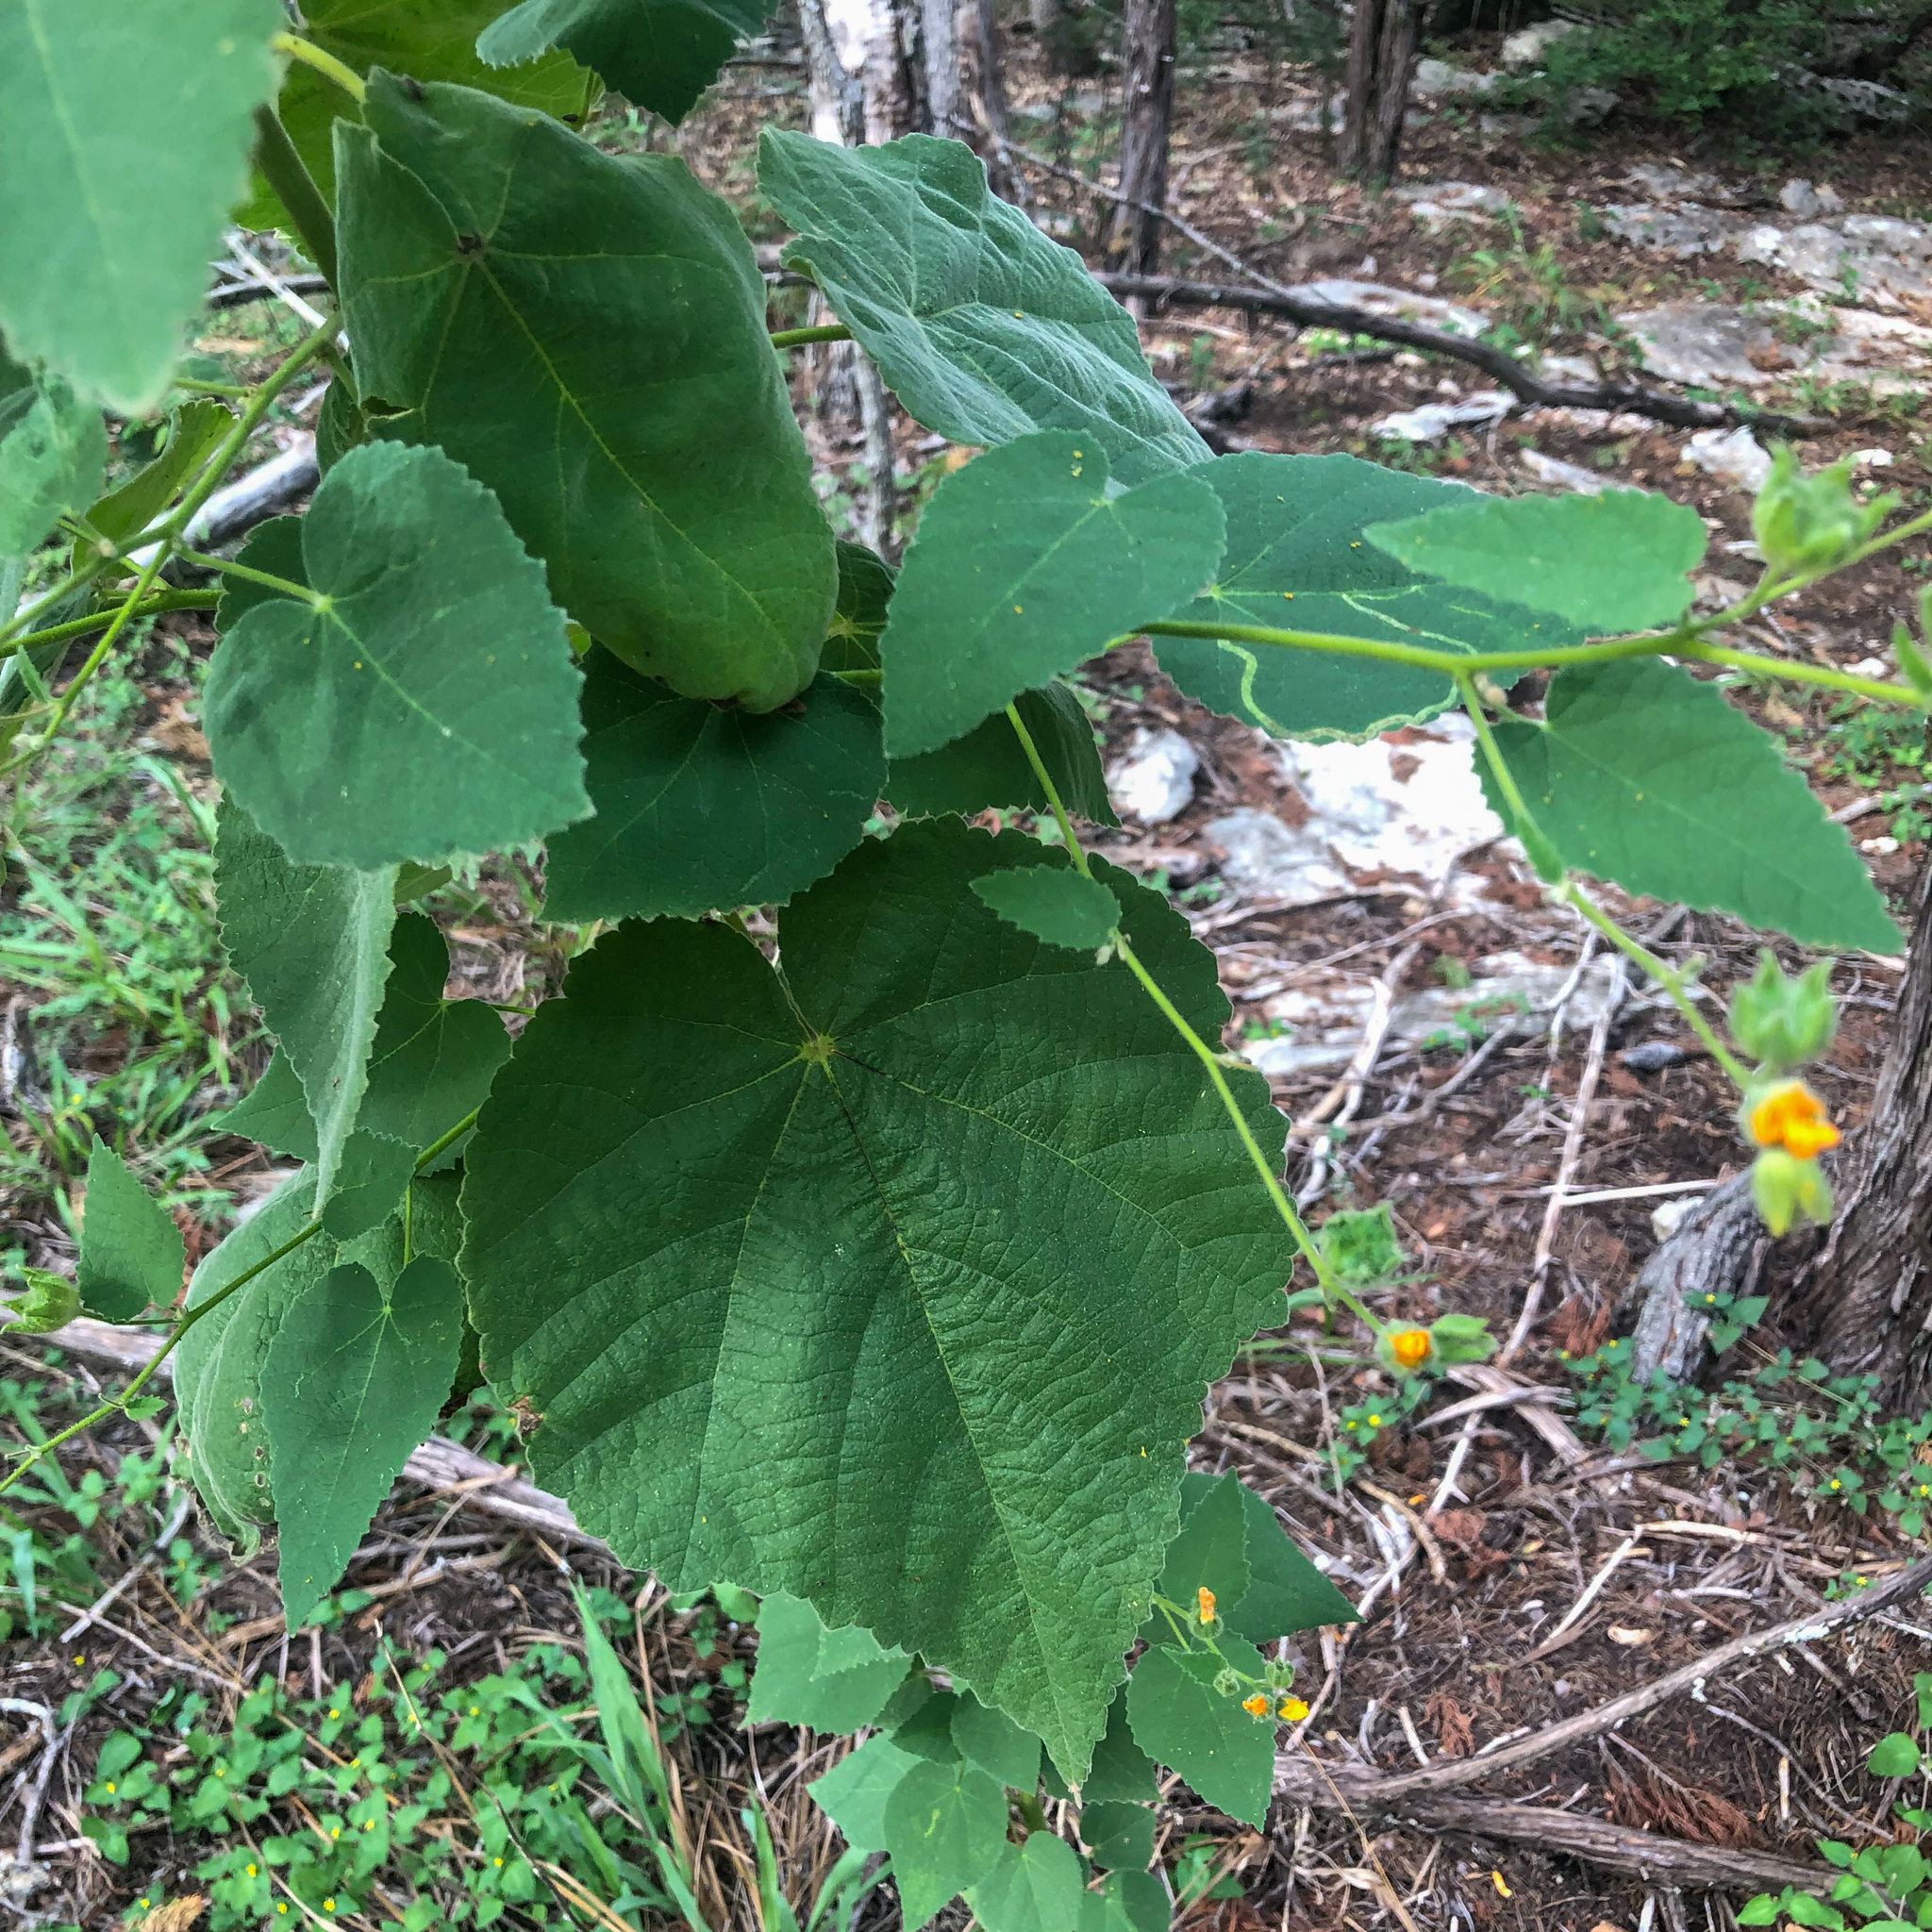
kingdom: Plantae
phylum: Tracheophyta
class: Magnoliopsida
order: Malvales
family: Malvaceae
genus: Allowissadula
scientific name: Allowissadula holosericea
